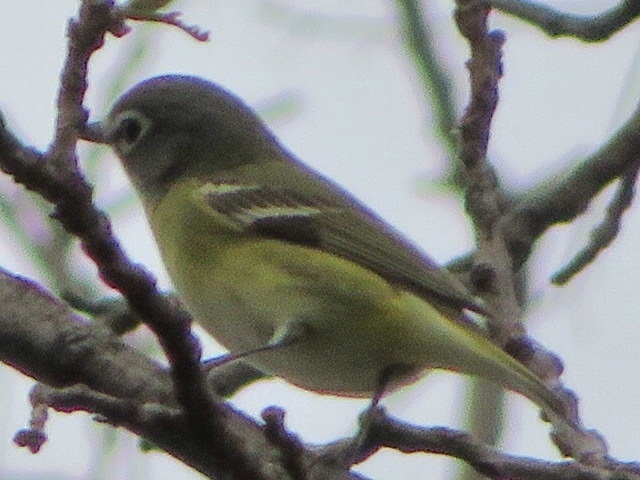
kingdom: Animalia
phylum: Chordata
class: Aves
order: Passeriformes
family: Vireonidae
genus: Vireo
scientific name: Vireo solitarius
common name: Blue-headed vireo
